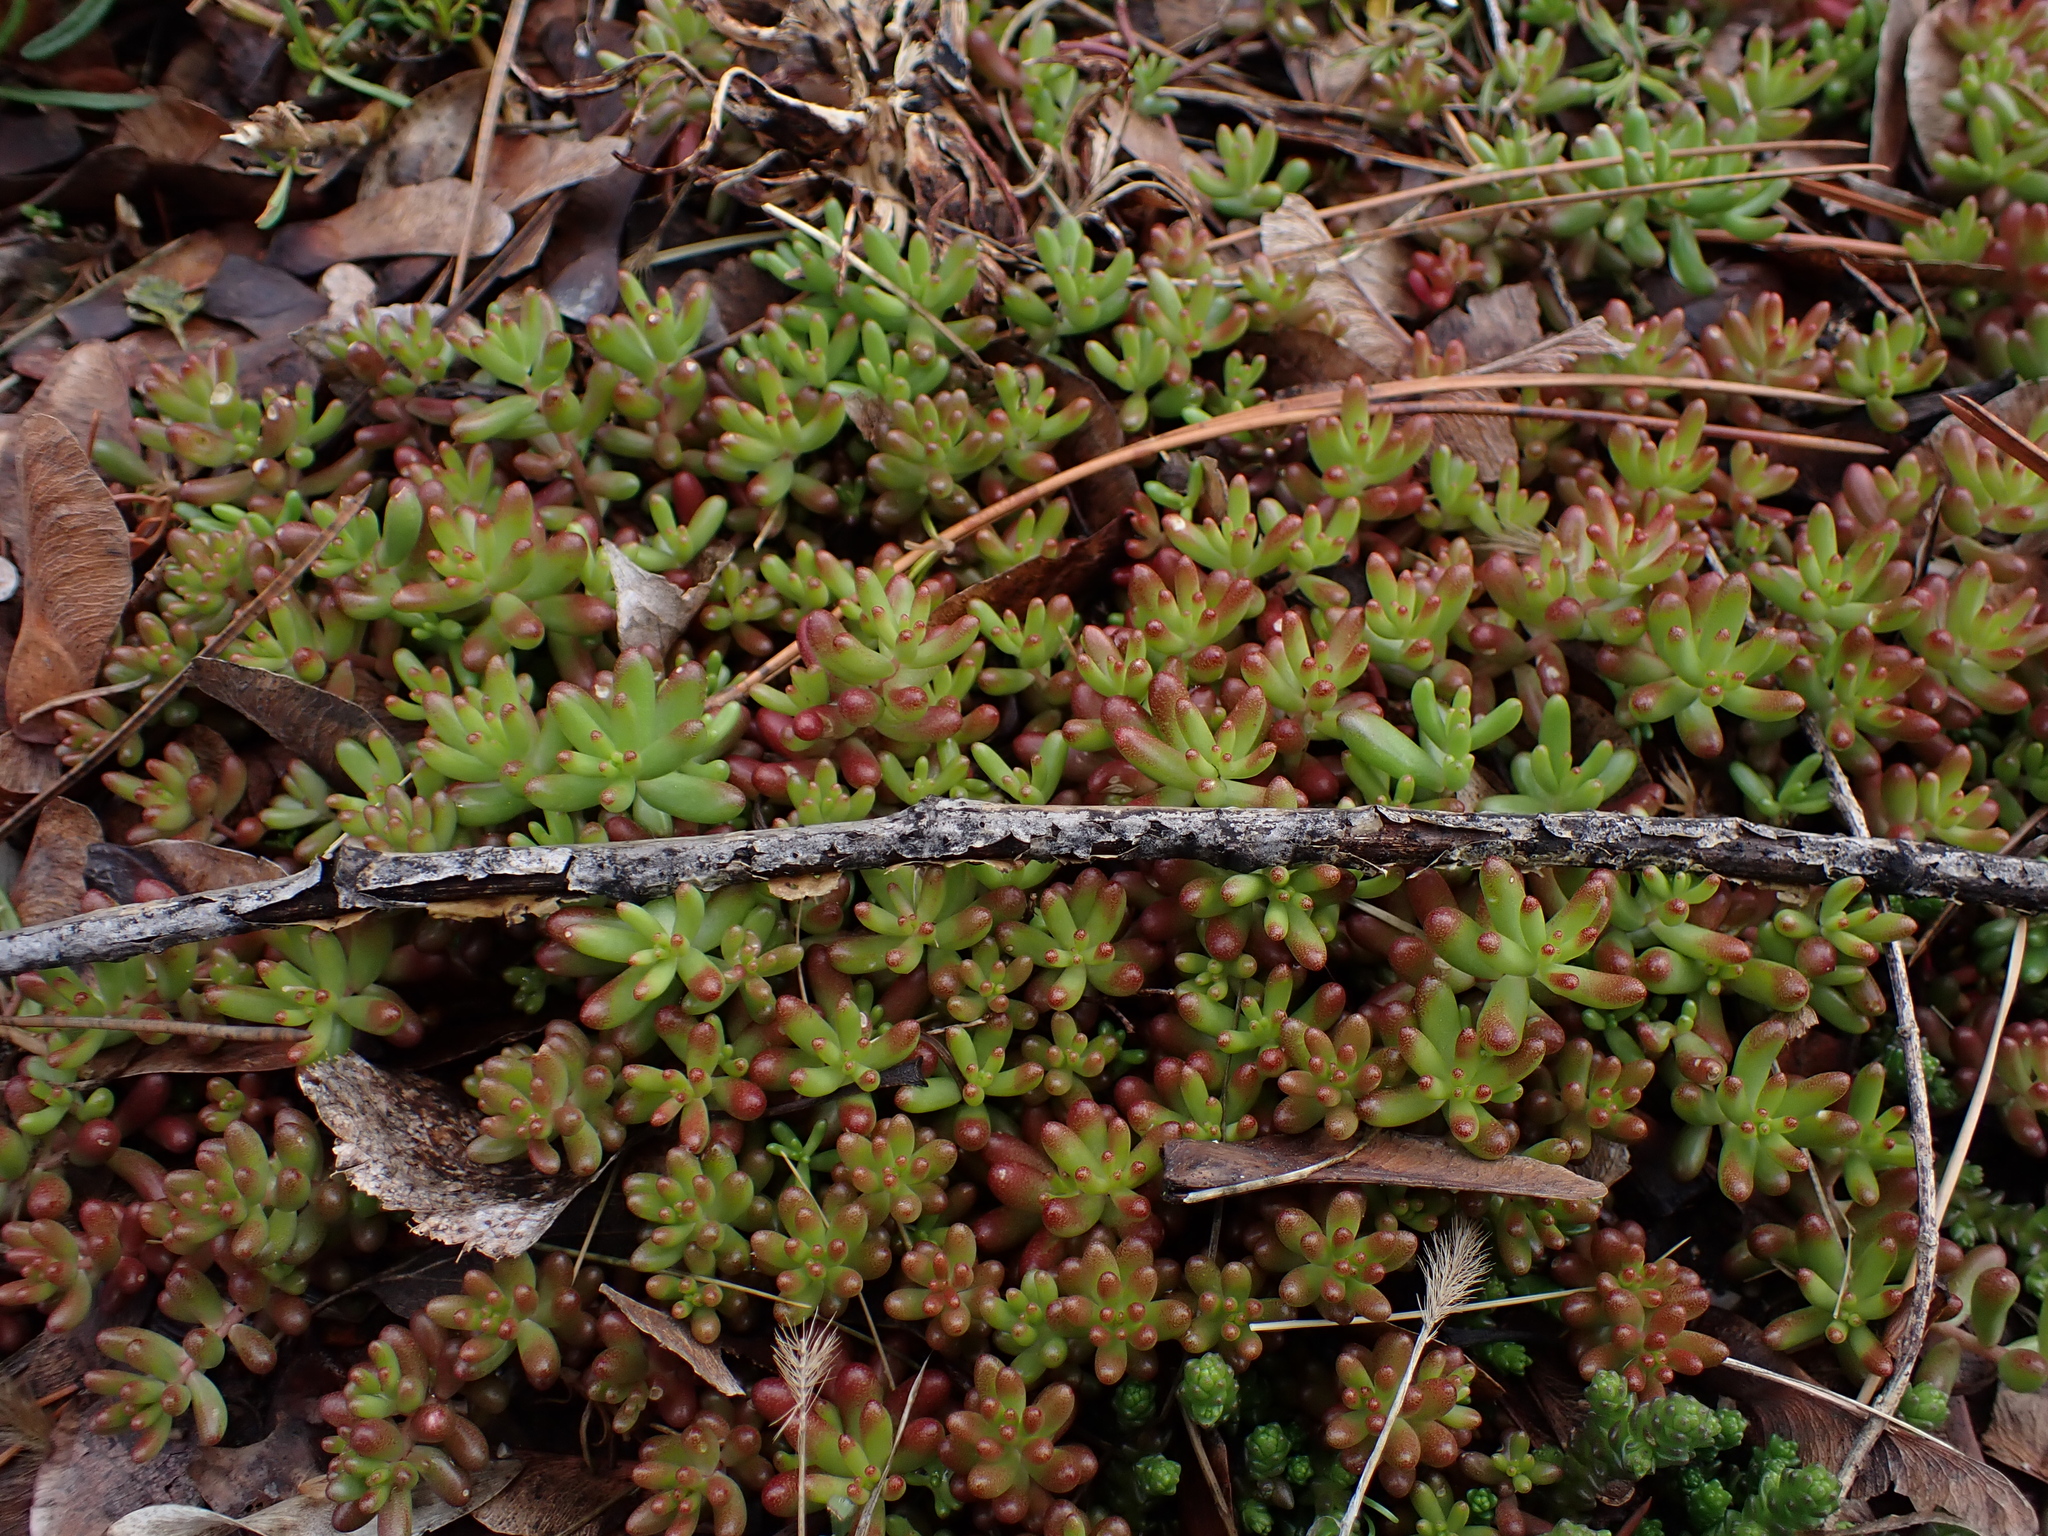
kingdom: Plantae
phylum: Tracheophyta
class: Magnoliopsida
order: Saxifragales
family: Crassulaceae
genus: Sedum
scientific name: Sedum album
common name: White stonecrop
